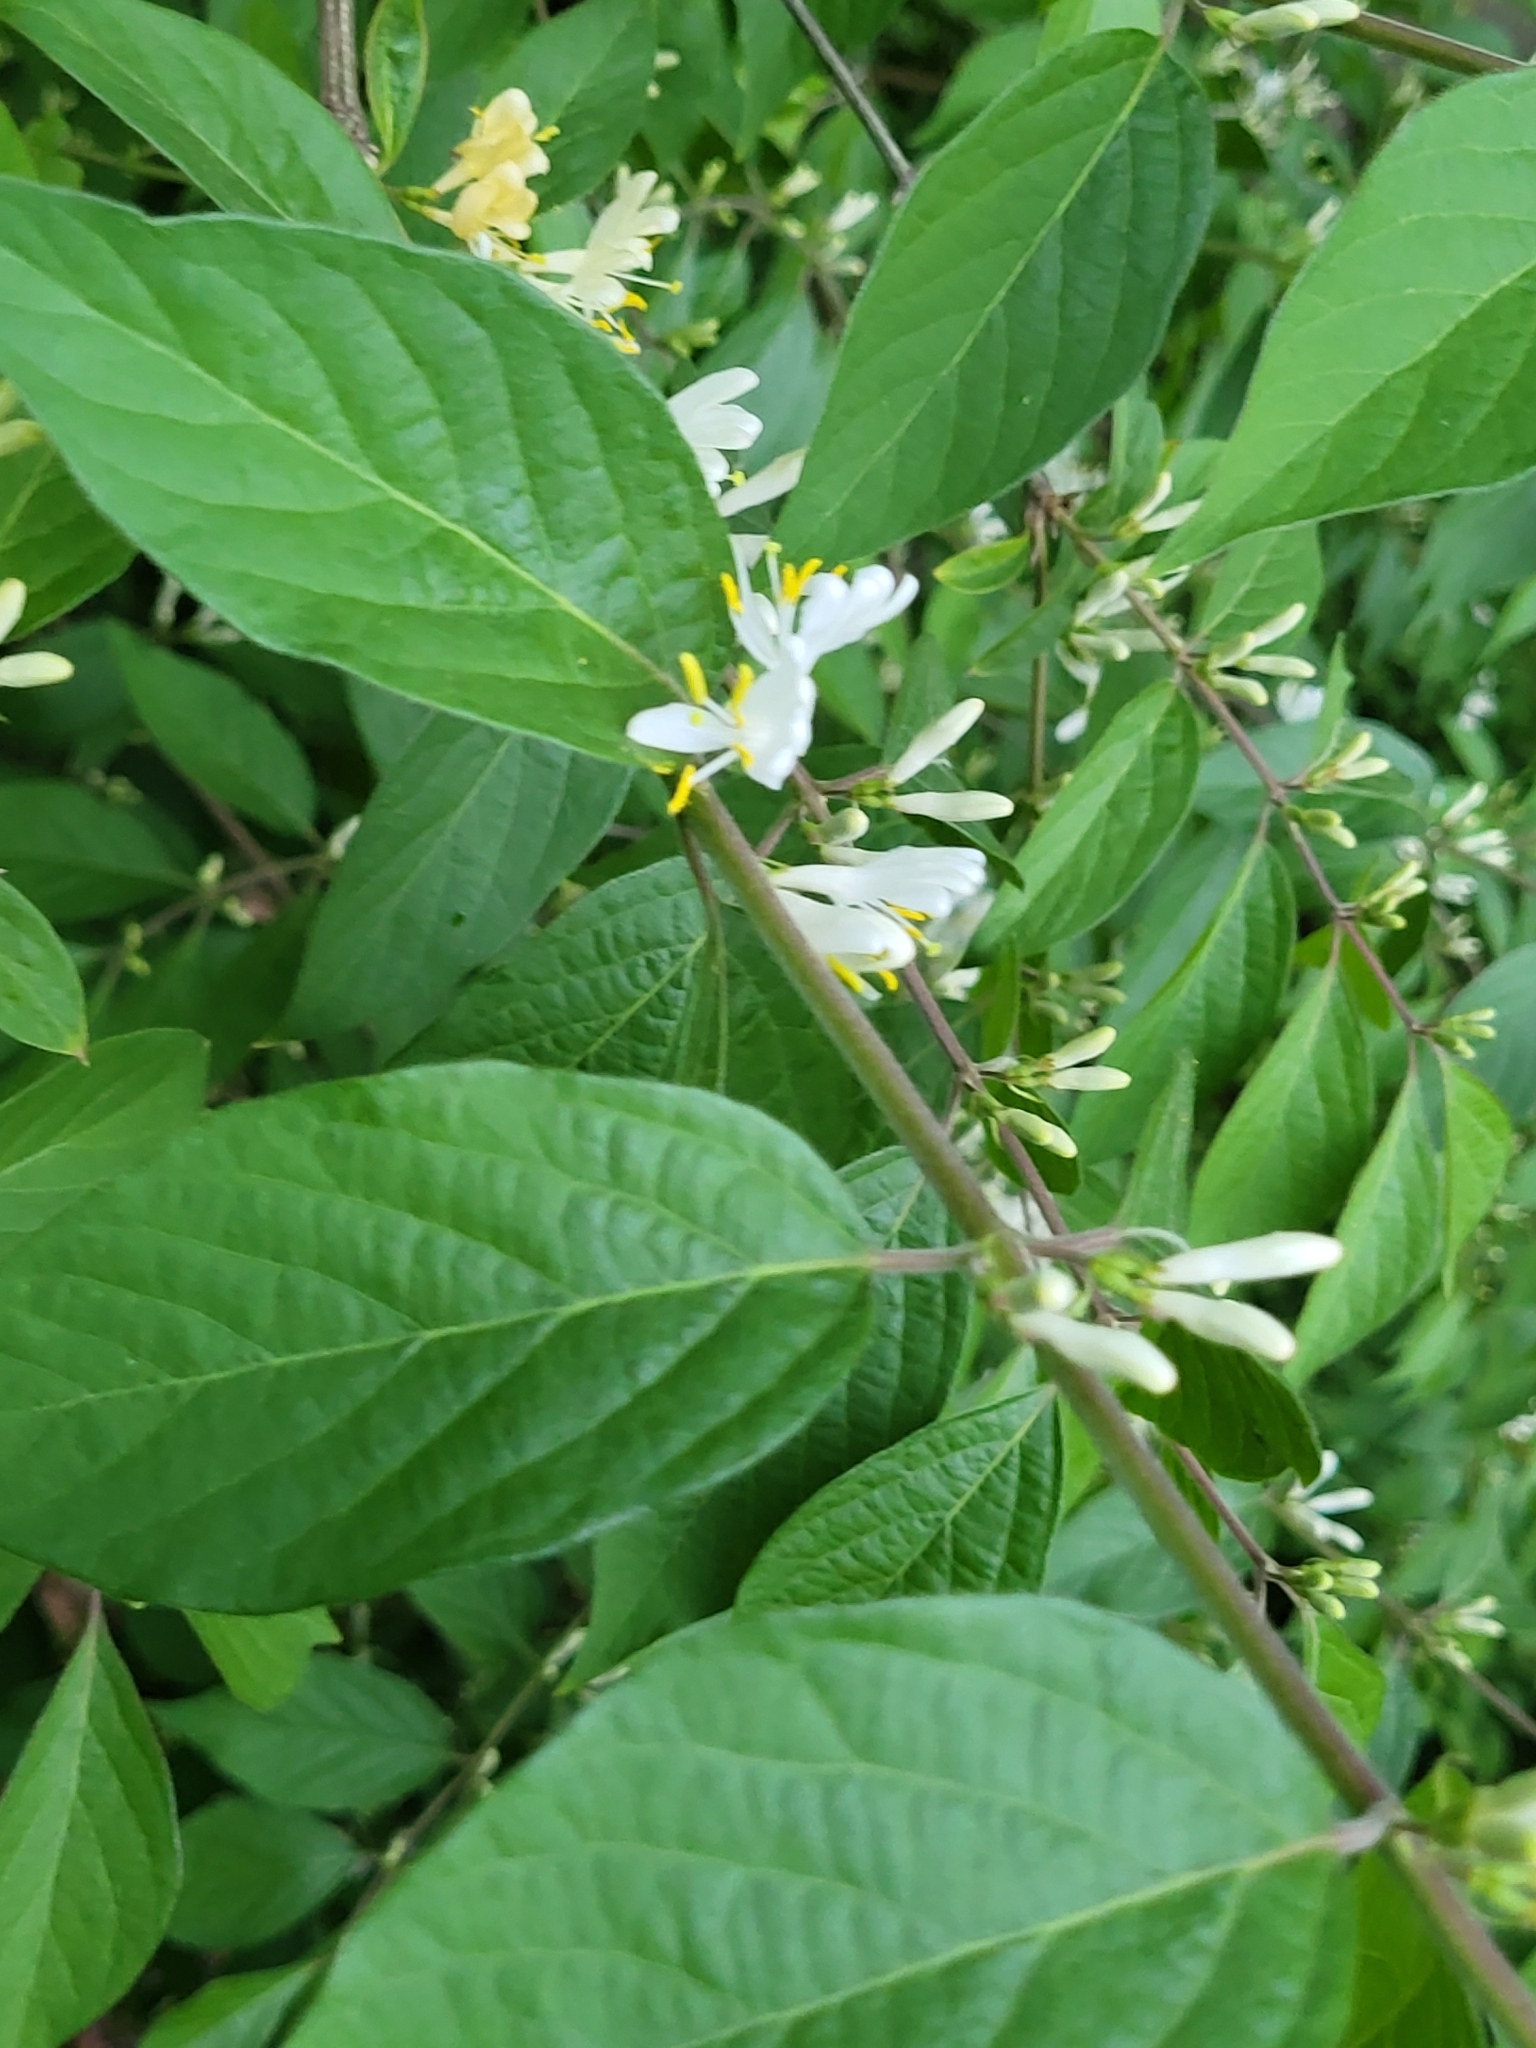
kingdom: Plantae
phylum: Tracheophyta
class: Magnoliopsida
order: Dipsacales
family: Caprifoliaceae
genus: Lonicera
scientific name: Lonicera maackii
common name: Amur honeysuckle
